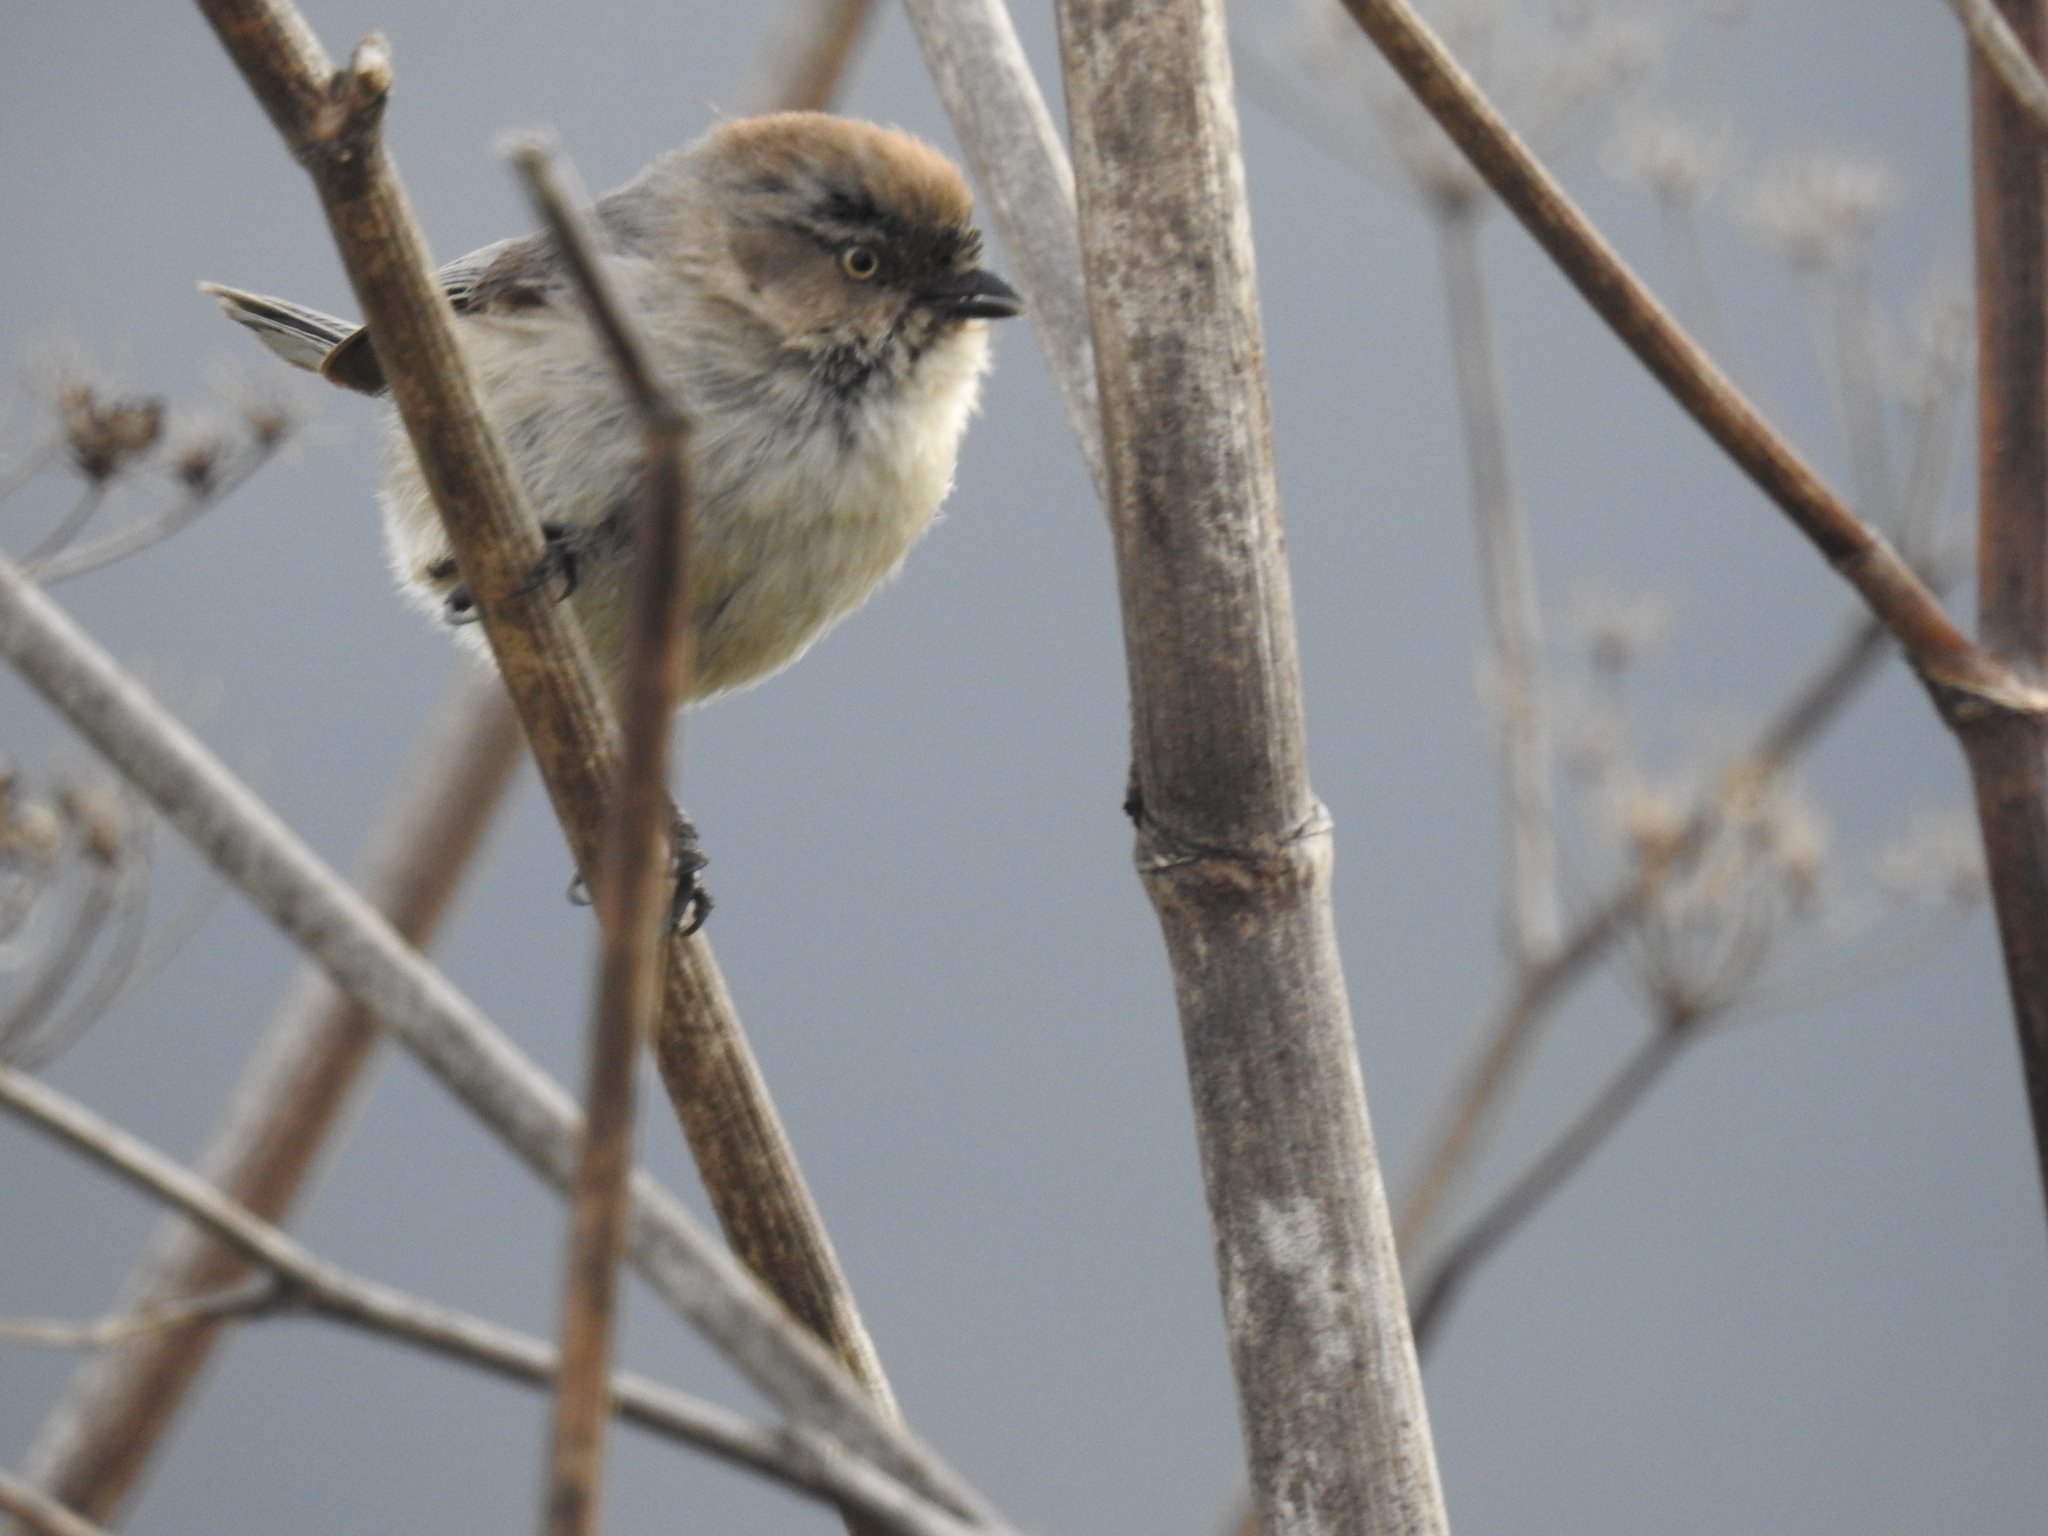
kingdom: Animalia
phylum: Chordata
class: Aves
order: Passeriformes
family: Aegithalidae
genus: Psaltriparus
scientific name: Psaltriparus minimus
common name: American bushtit
